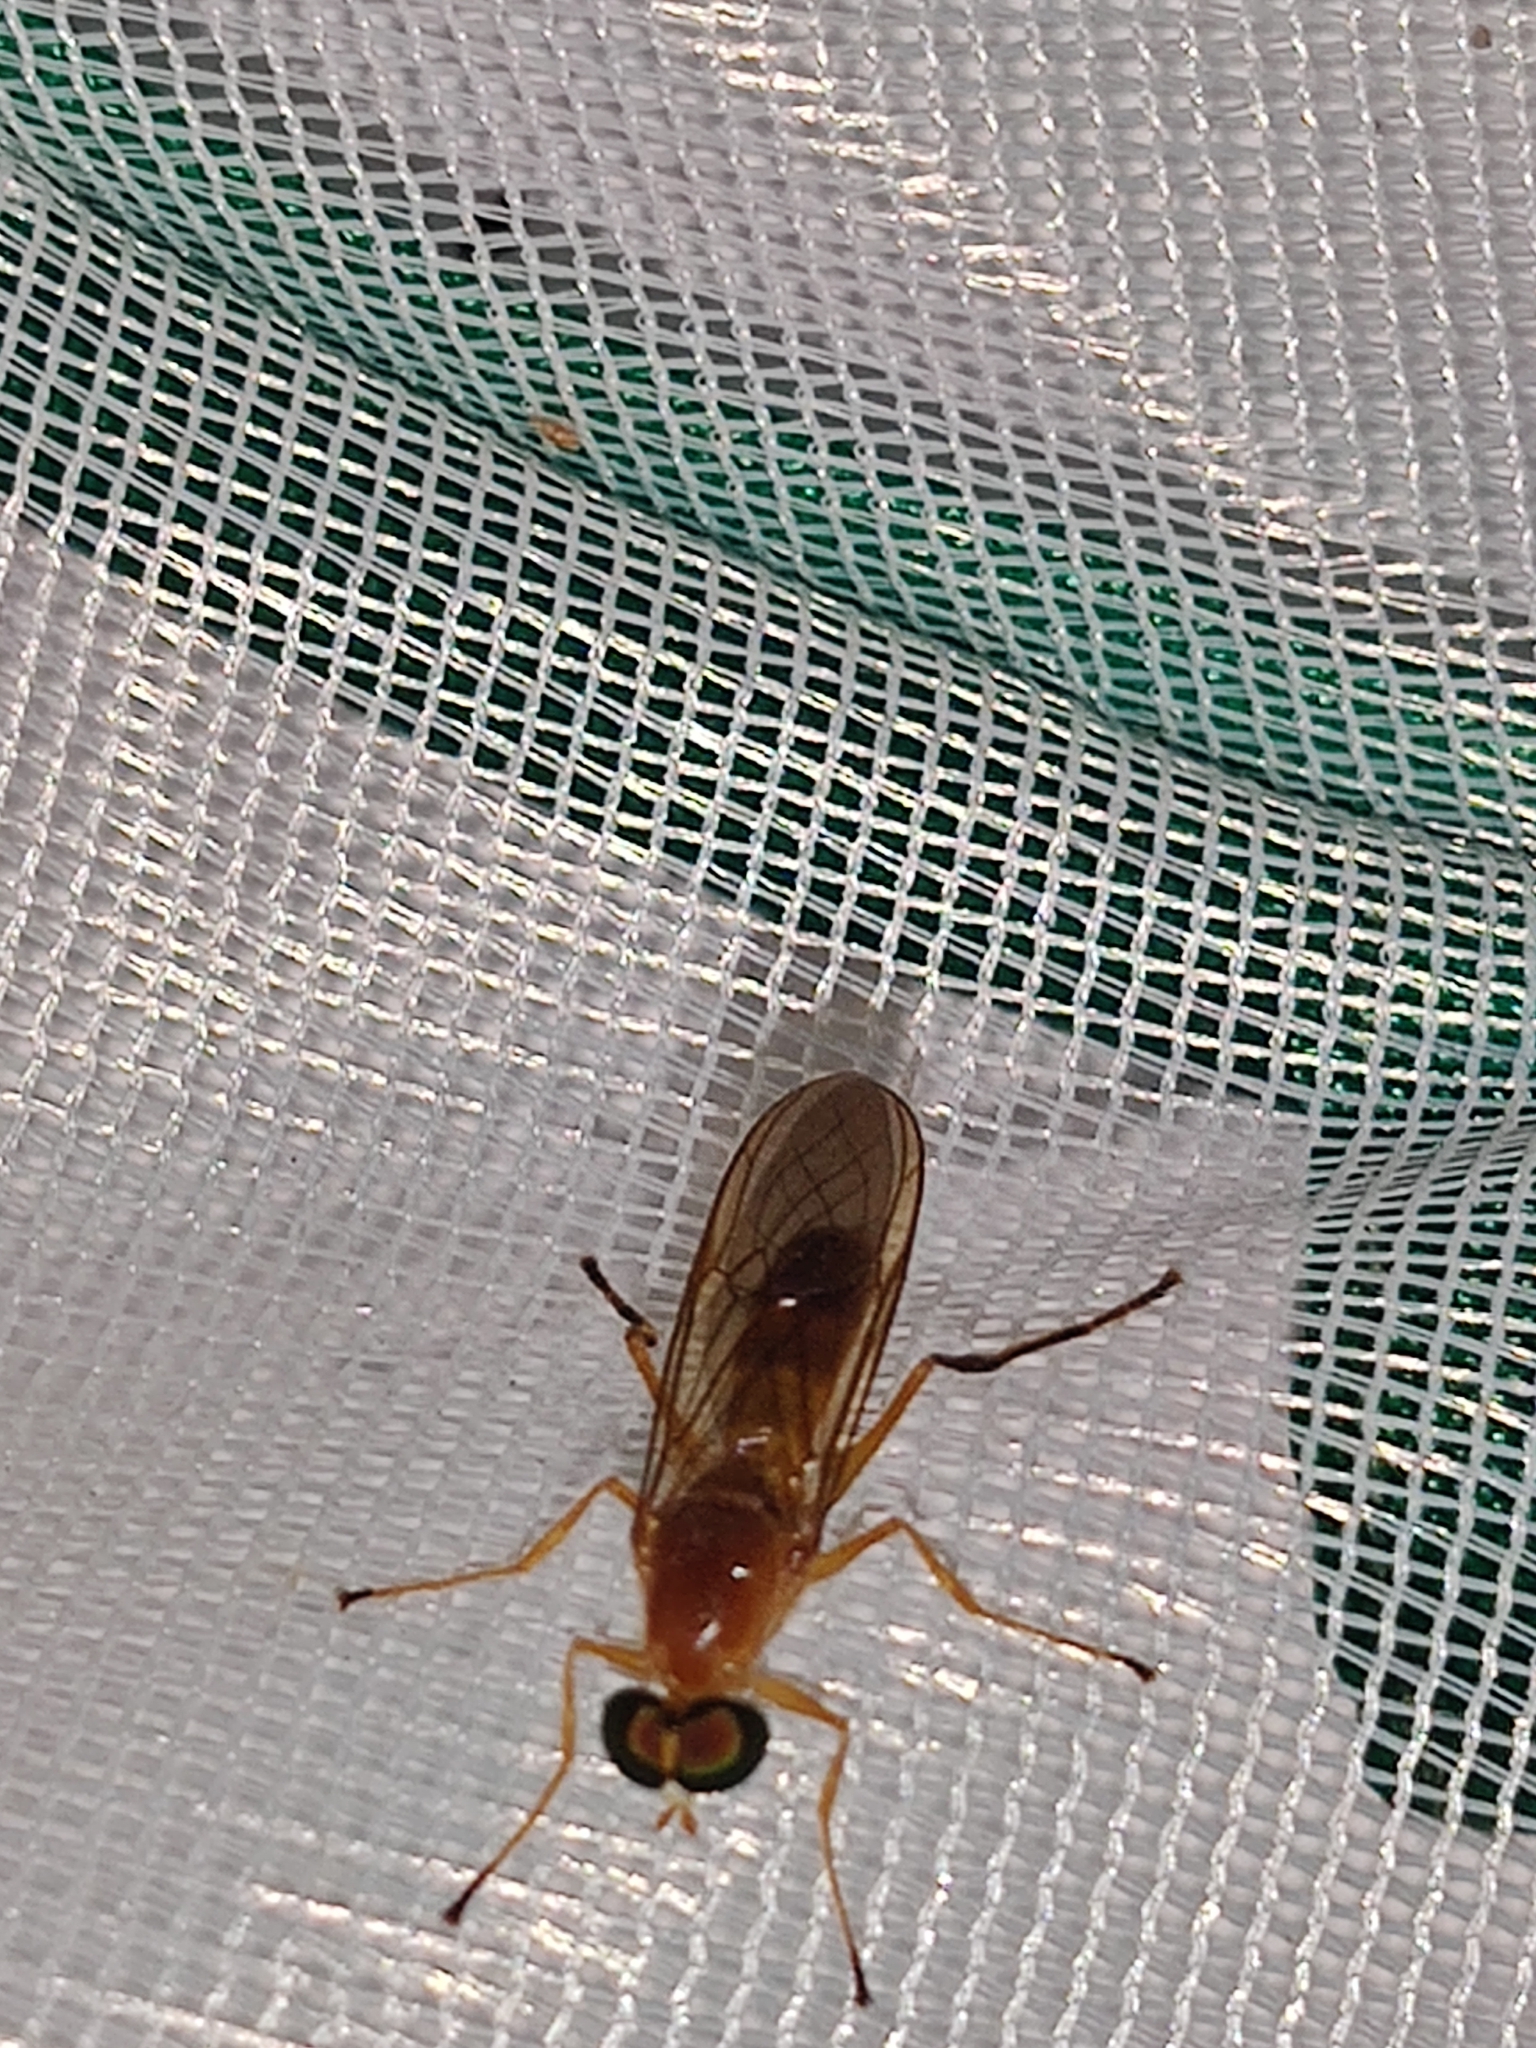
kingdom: Animalia
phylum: Arthropoda
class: Insecta
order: Diptera
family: Stratiomyidae
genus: Ptecticus
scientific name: Ptecticus trivittatus
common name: Compost fly
